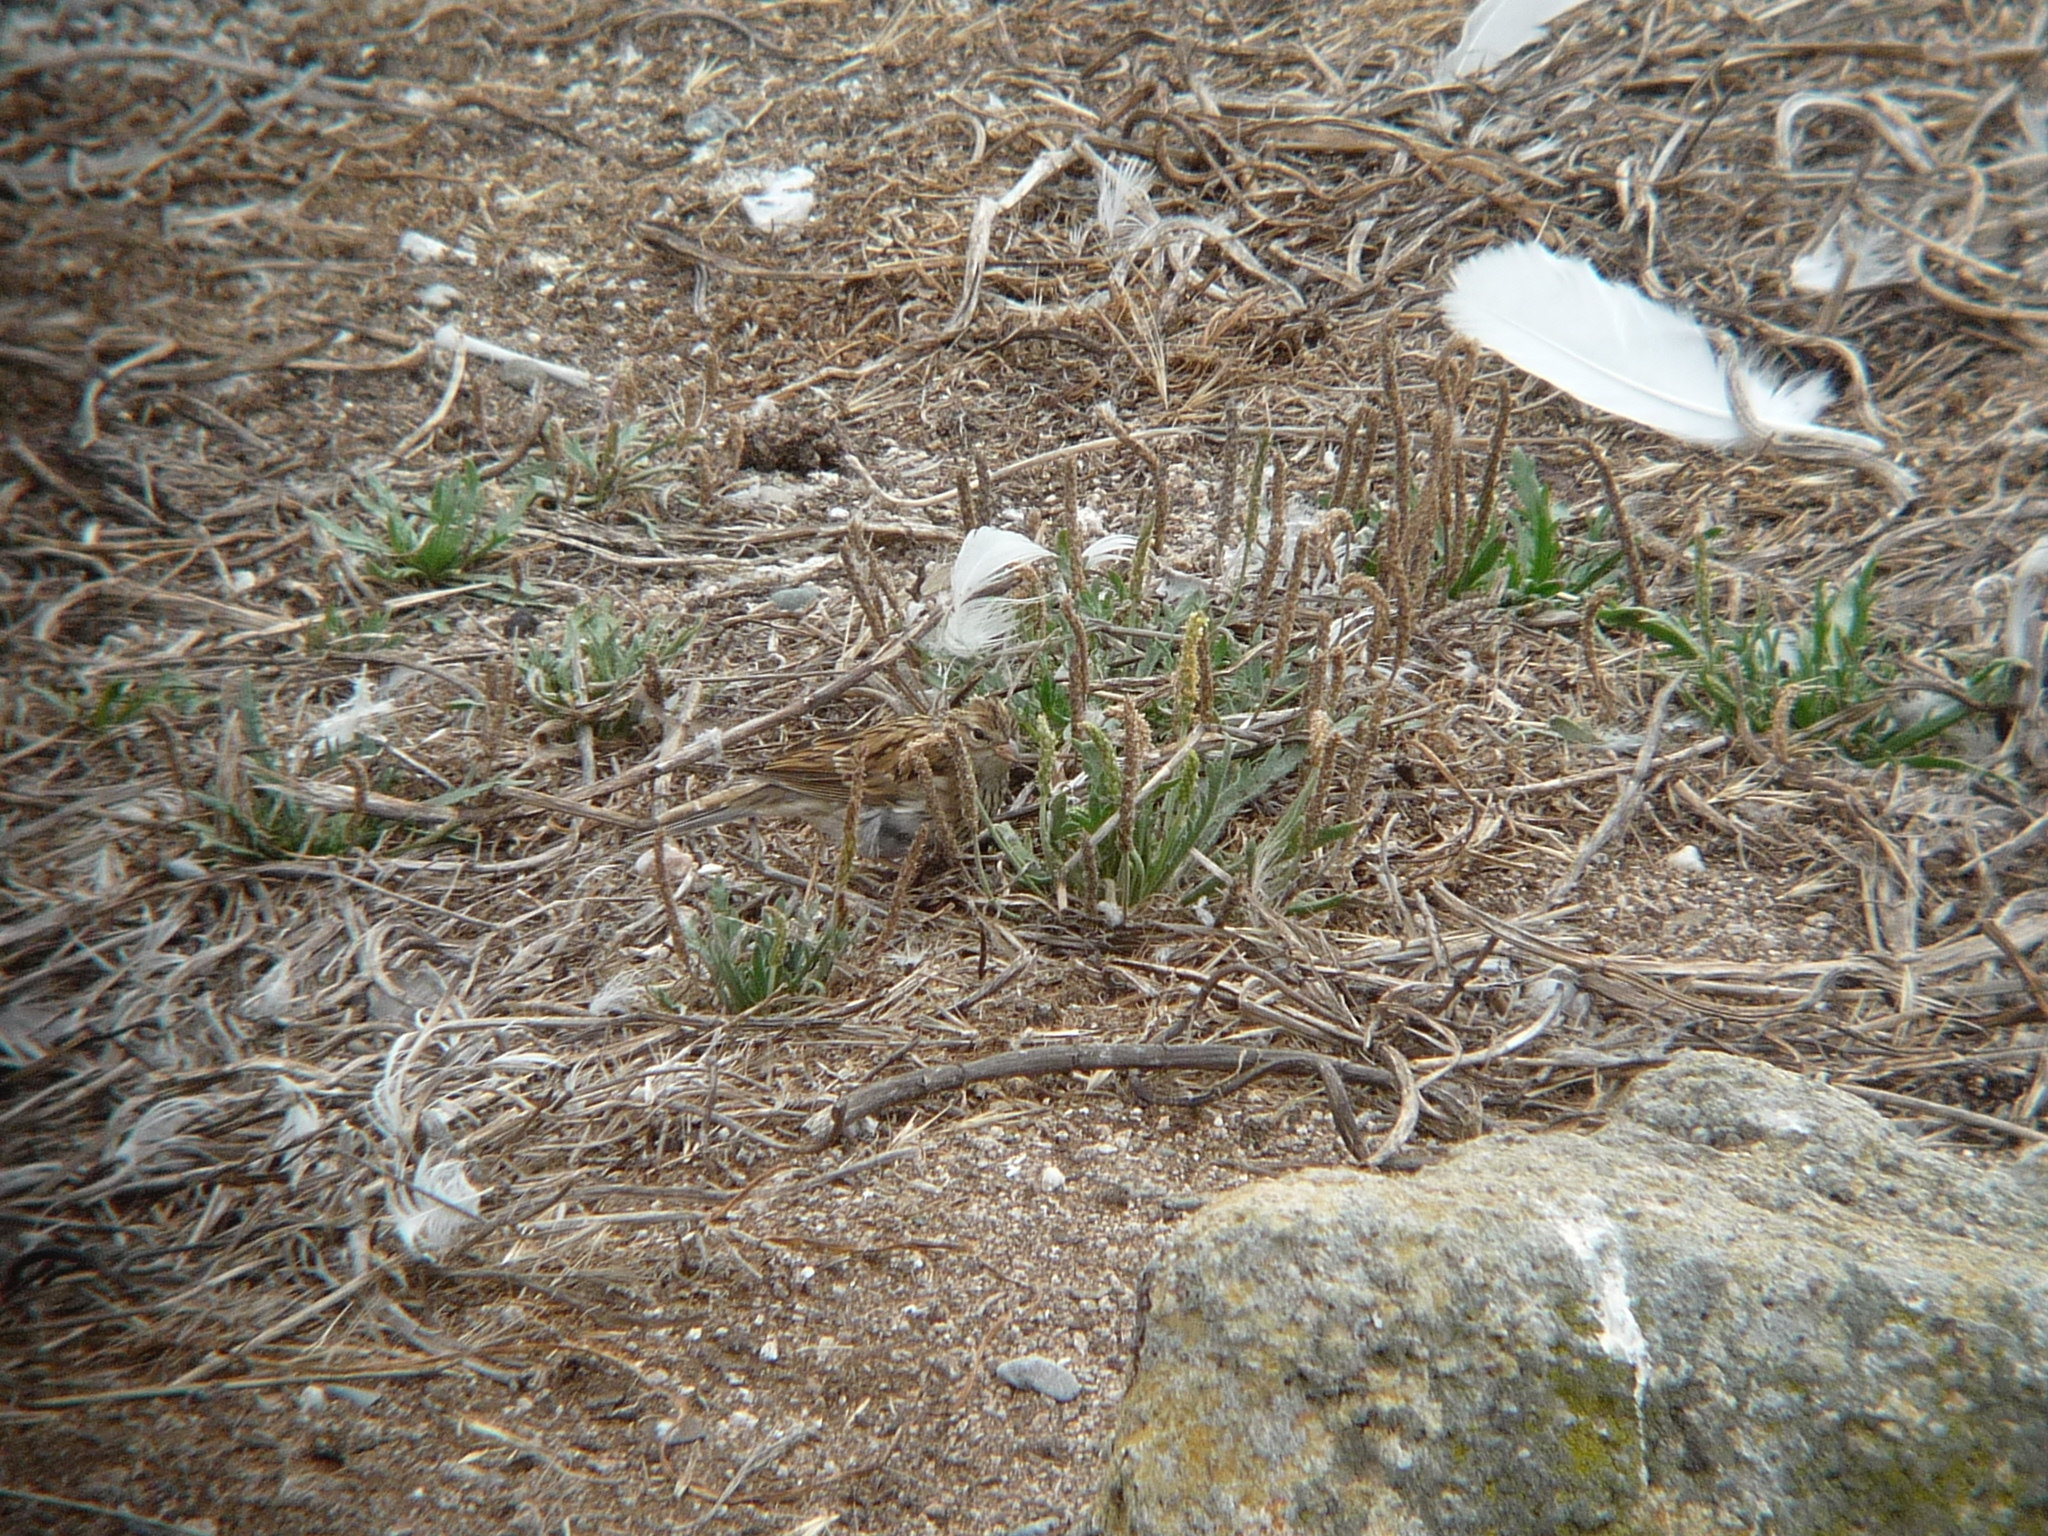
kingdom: Animalia
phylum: Chordata
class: Aves
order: Passeriformes
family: Passerellidae
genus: Spizella
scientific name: Spizella passerina
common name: Chipping sparrow
